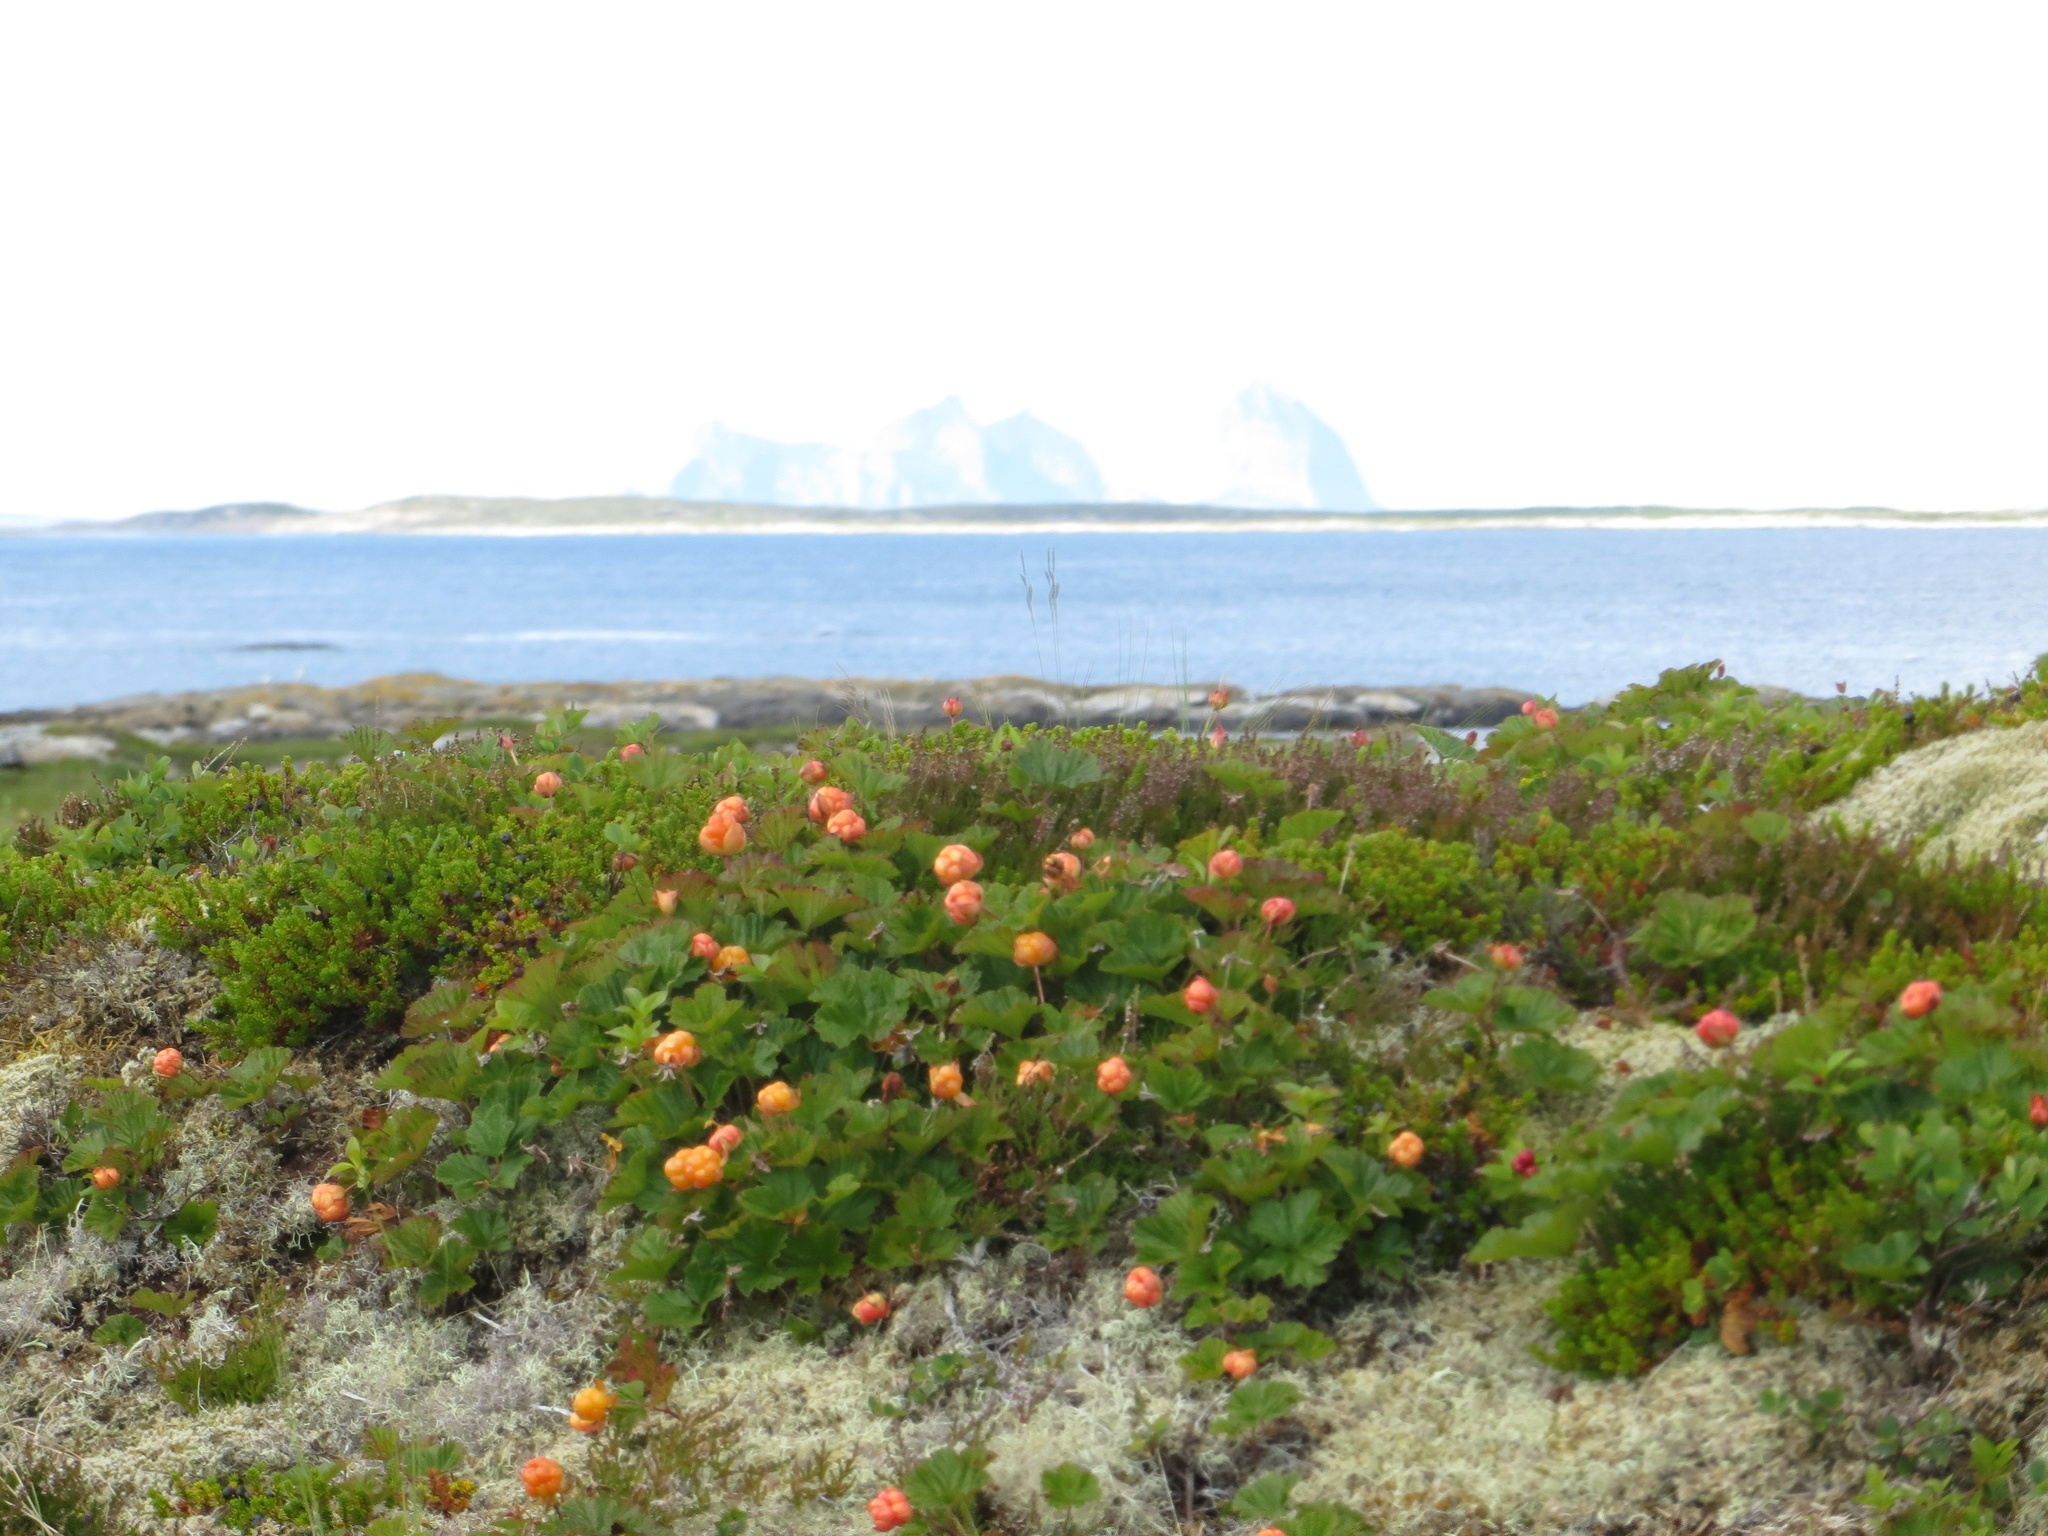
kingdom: Plantae
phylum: Tracheophyta
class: Magnoliopsida
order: Rosales
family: Rosaceae
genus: Rubus
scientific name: Rubus chamaemorus
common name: Cloudberry
